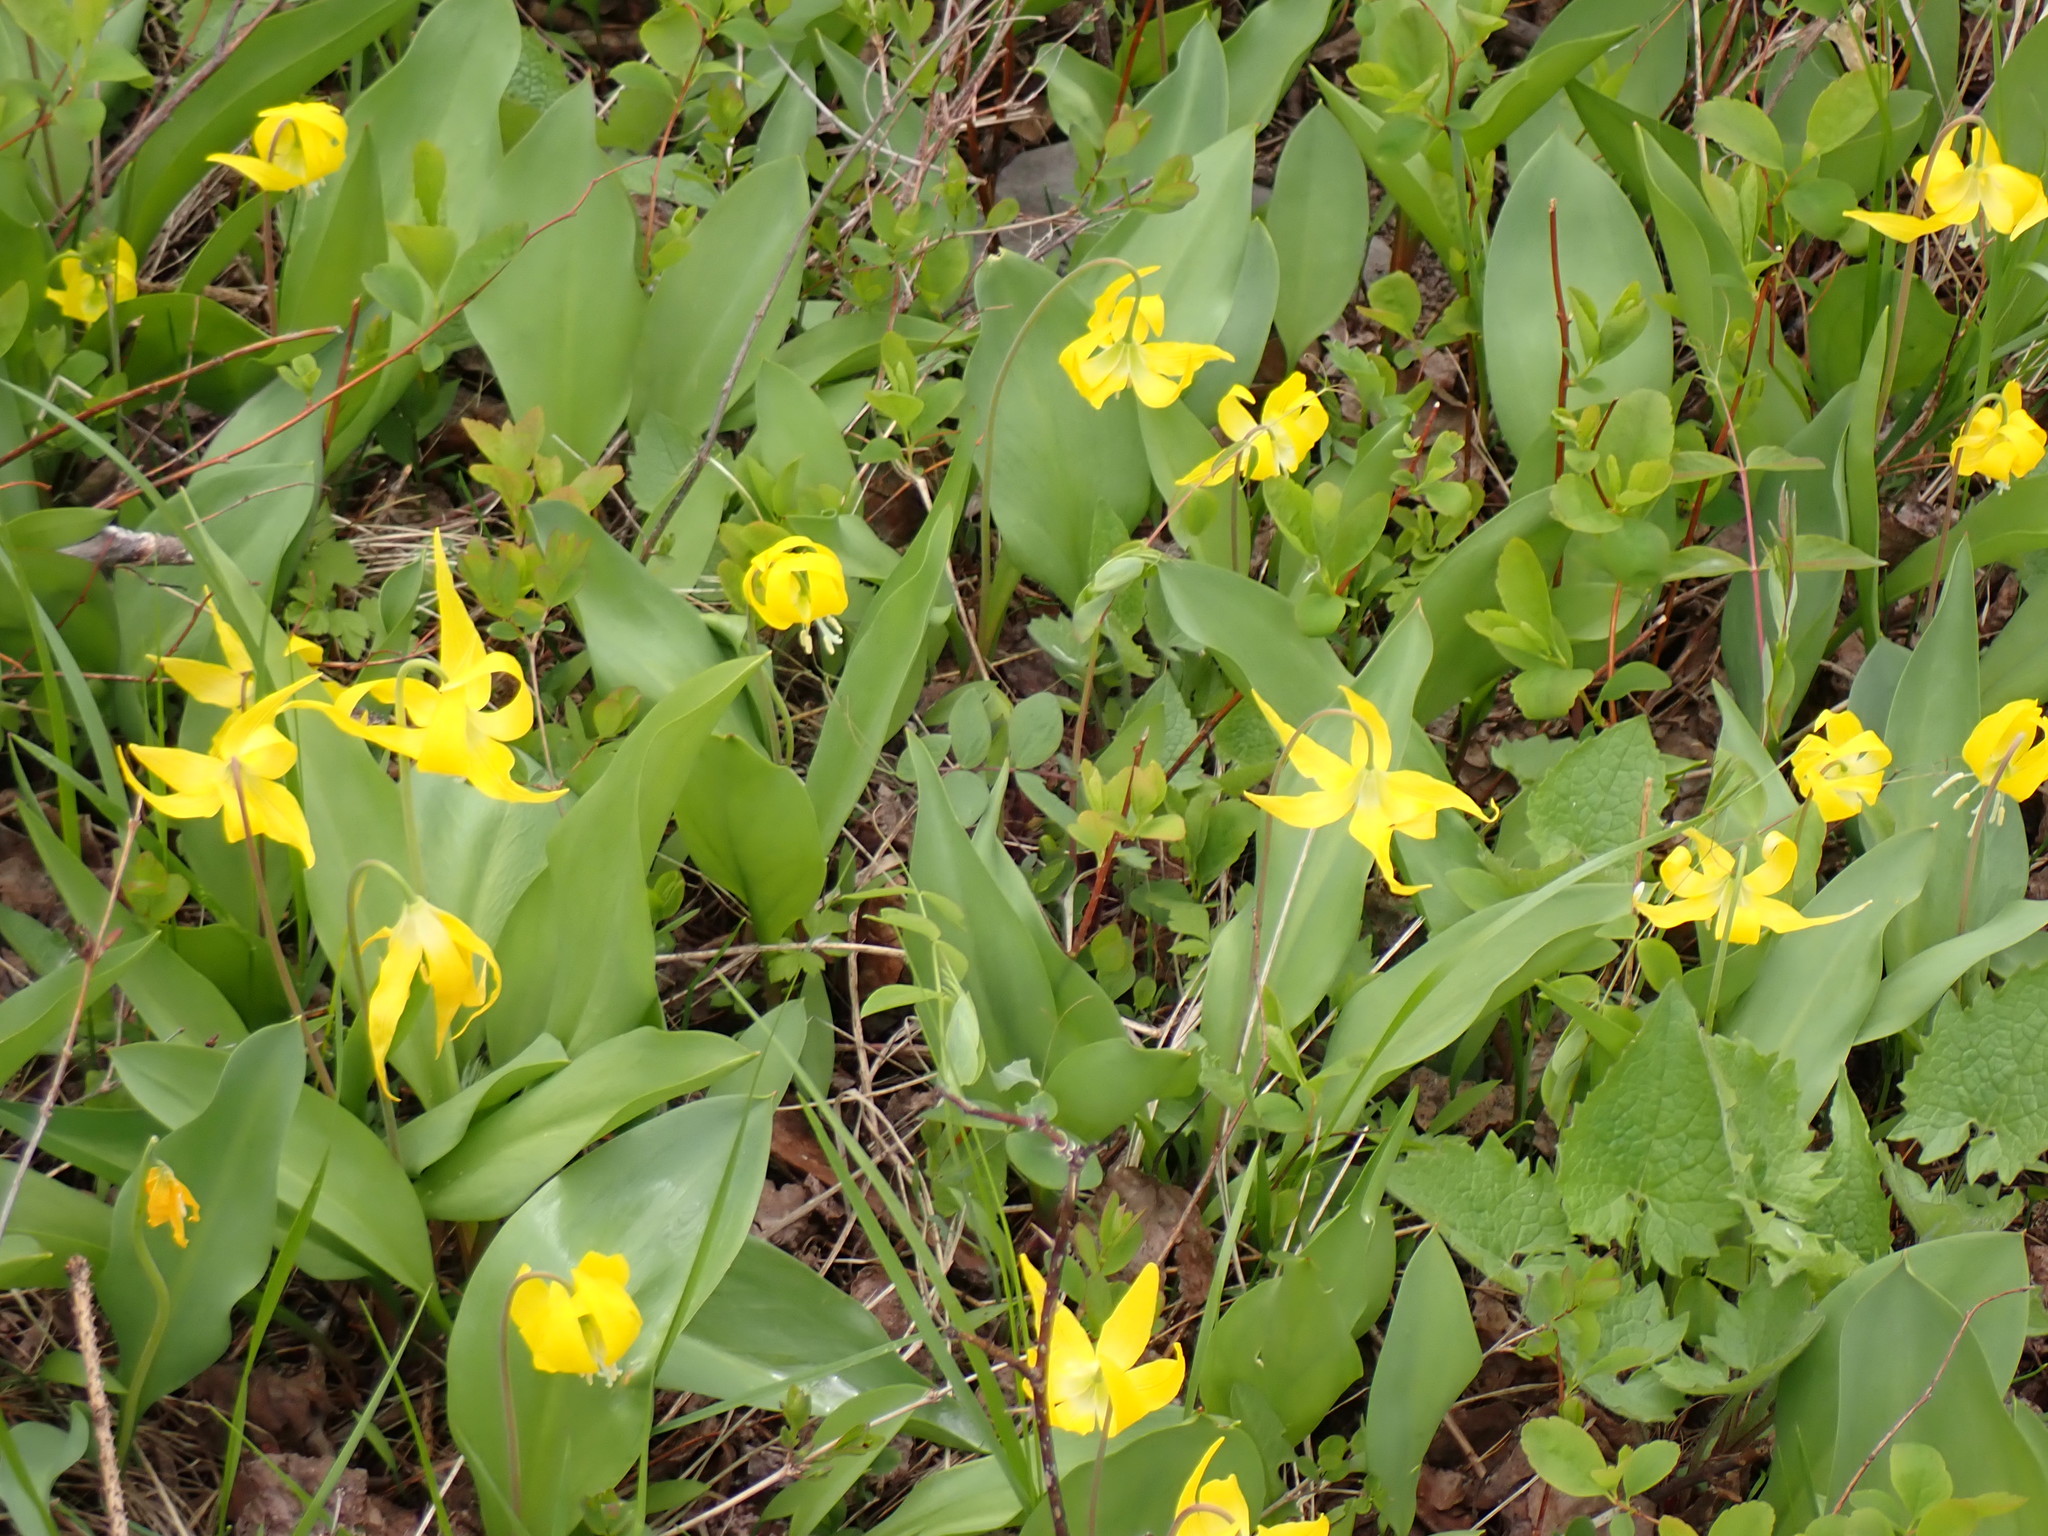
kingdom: Plantae
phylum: Tracheophyta
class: Liliopsida
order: Liliales
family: Liliaceae
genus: Erythronium
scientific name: Erythronium grandiflorum
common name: Avalanche-lily
